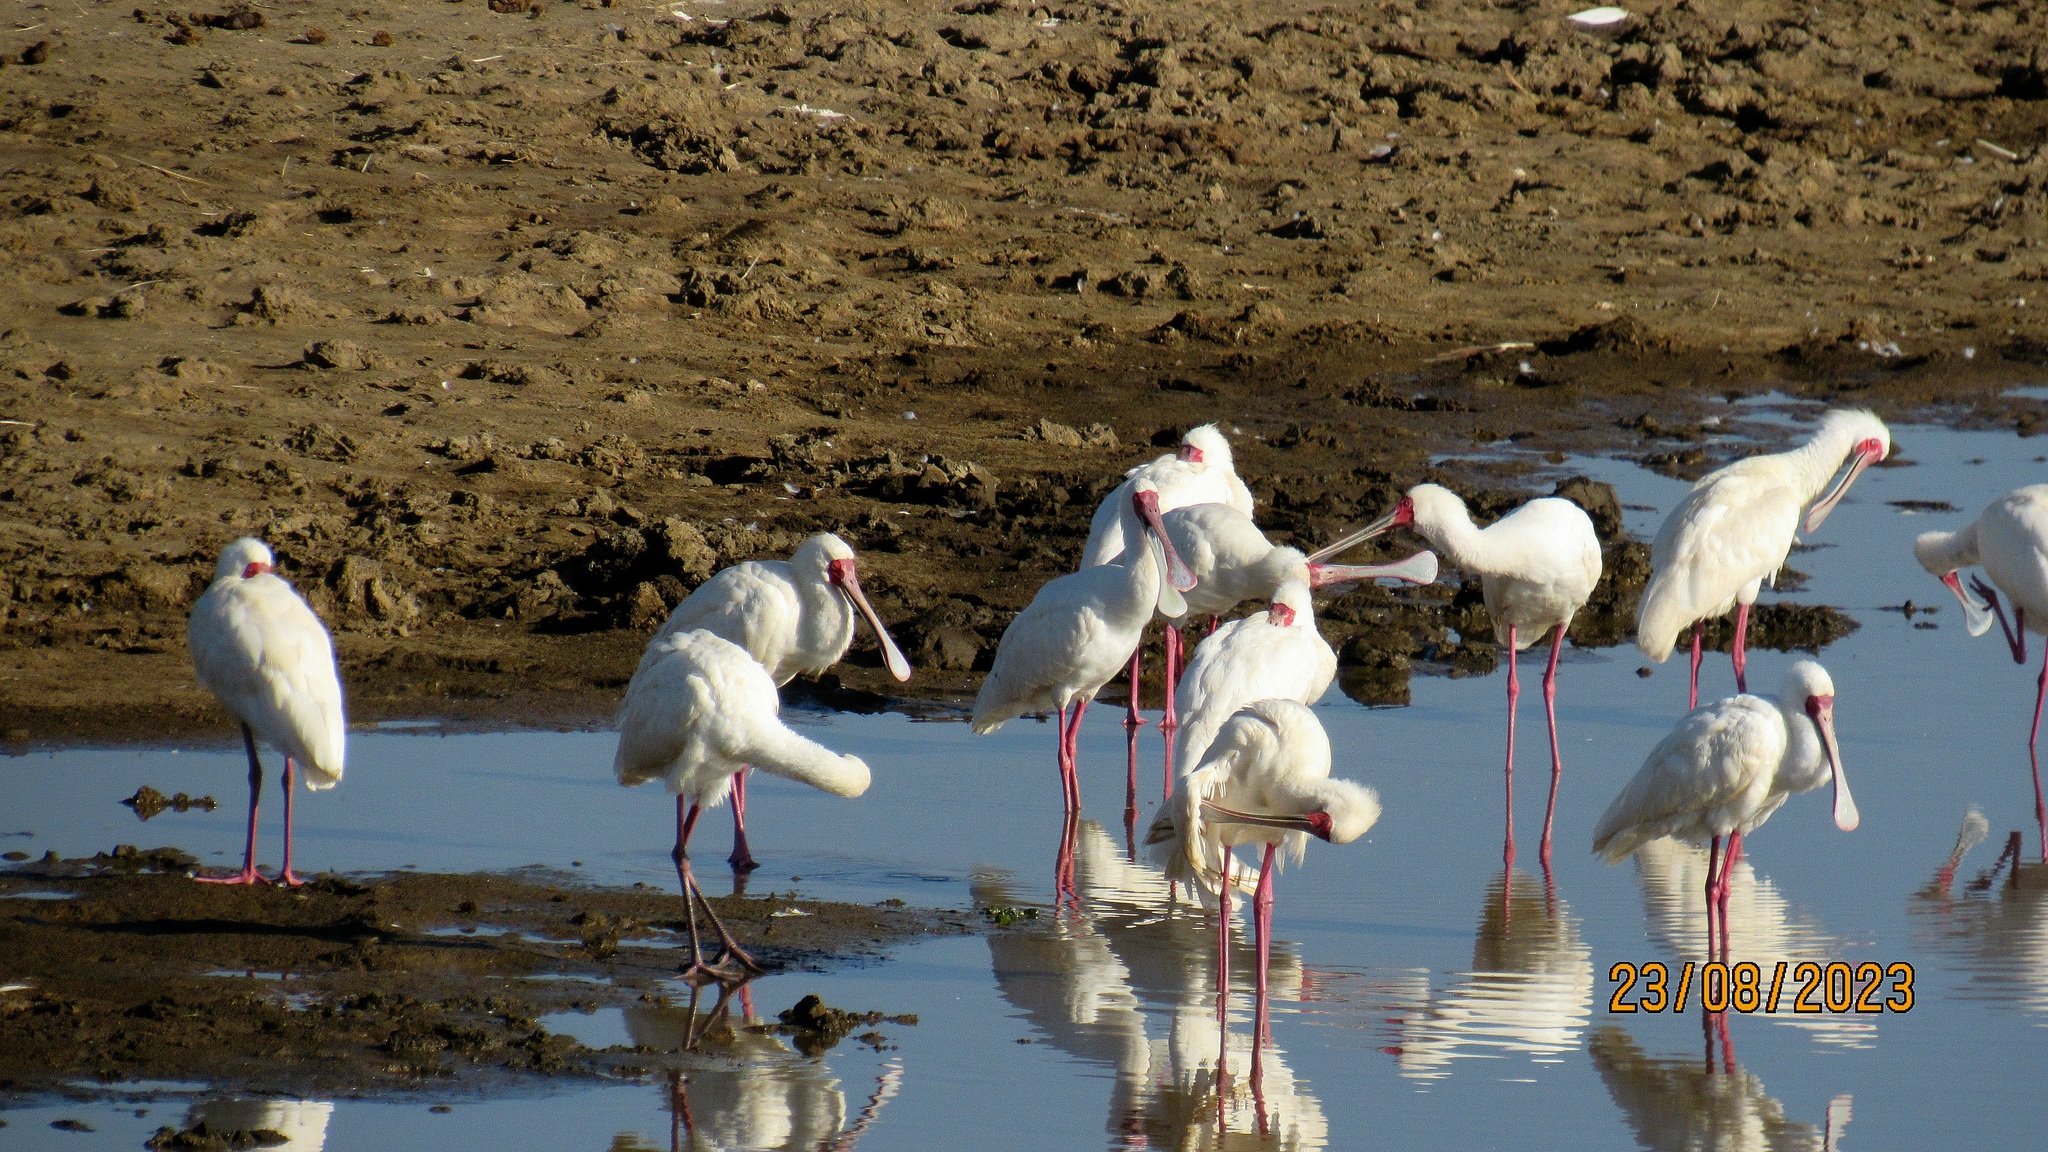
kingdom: Animalia
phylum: Chordata
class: Aves
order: Pelecaniformes
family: Threskiornithidae
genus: Platalea
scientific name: Platalea alba
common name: African spoonbill
